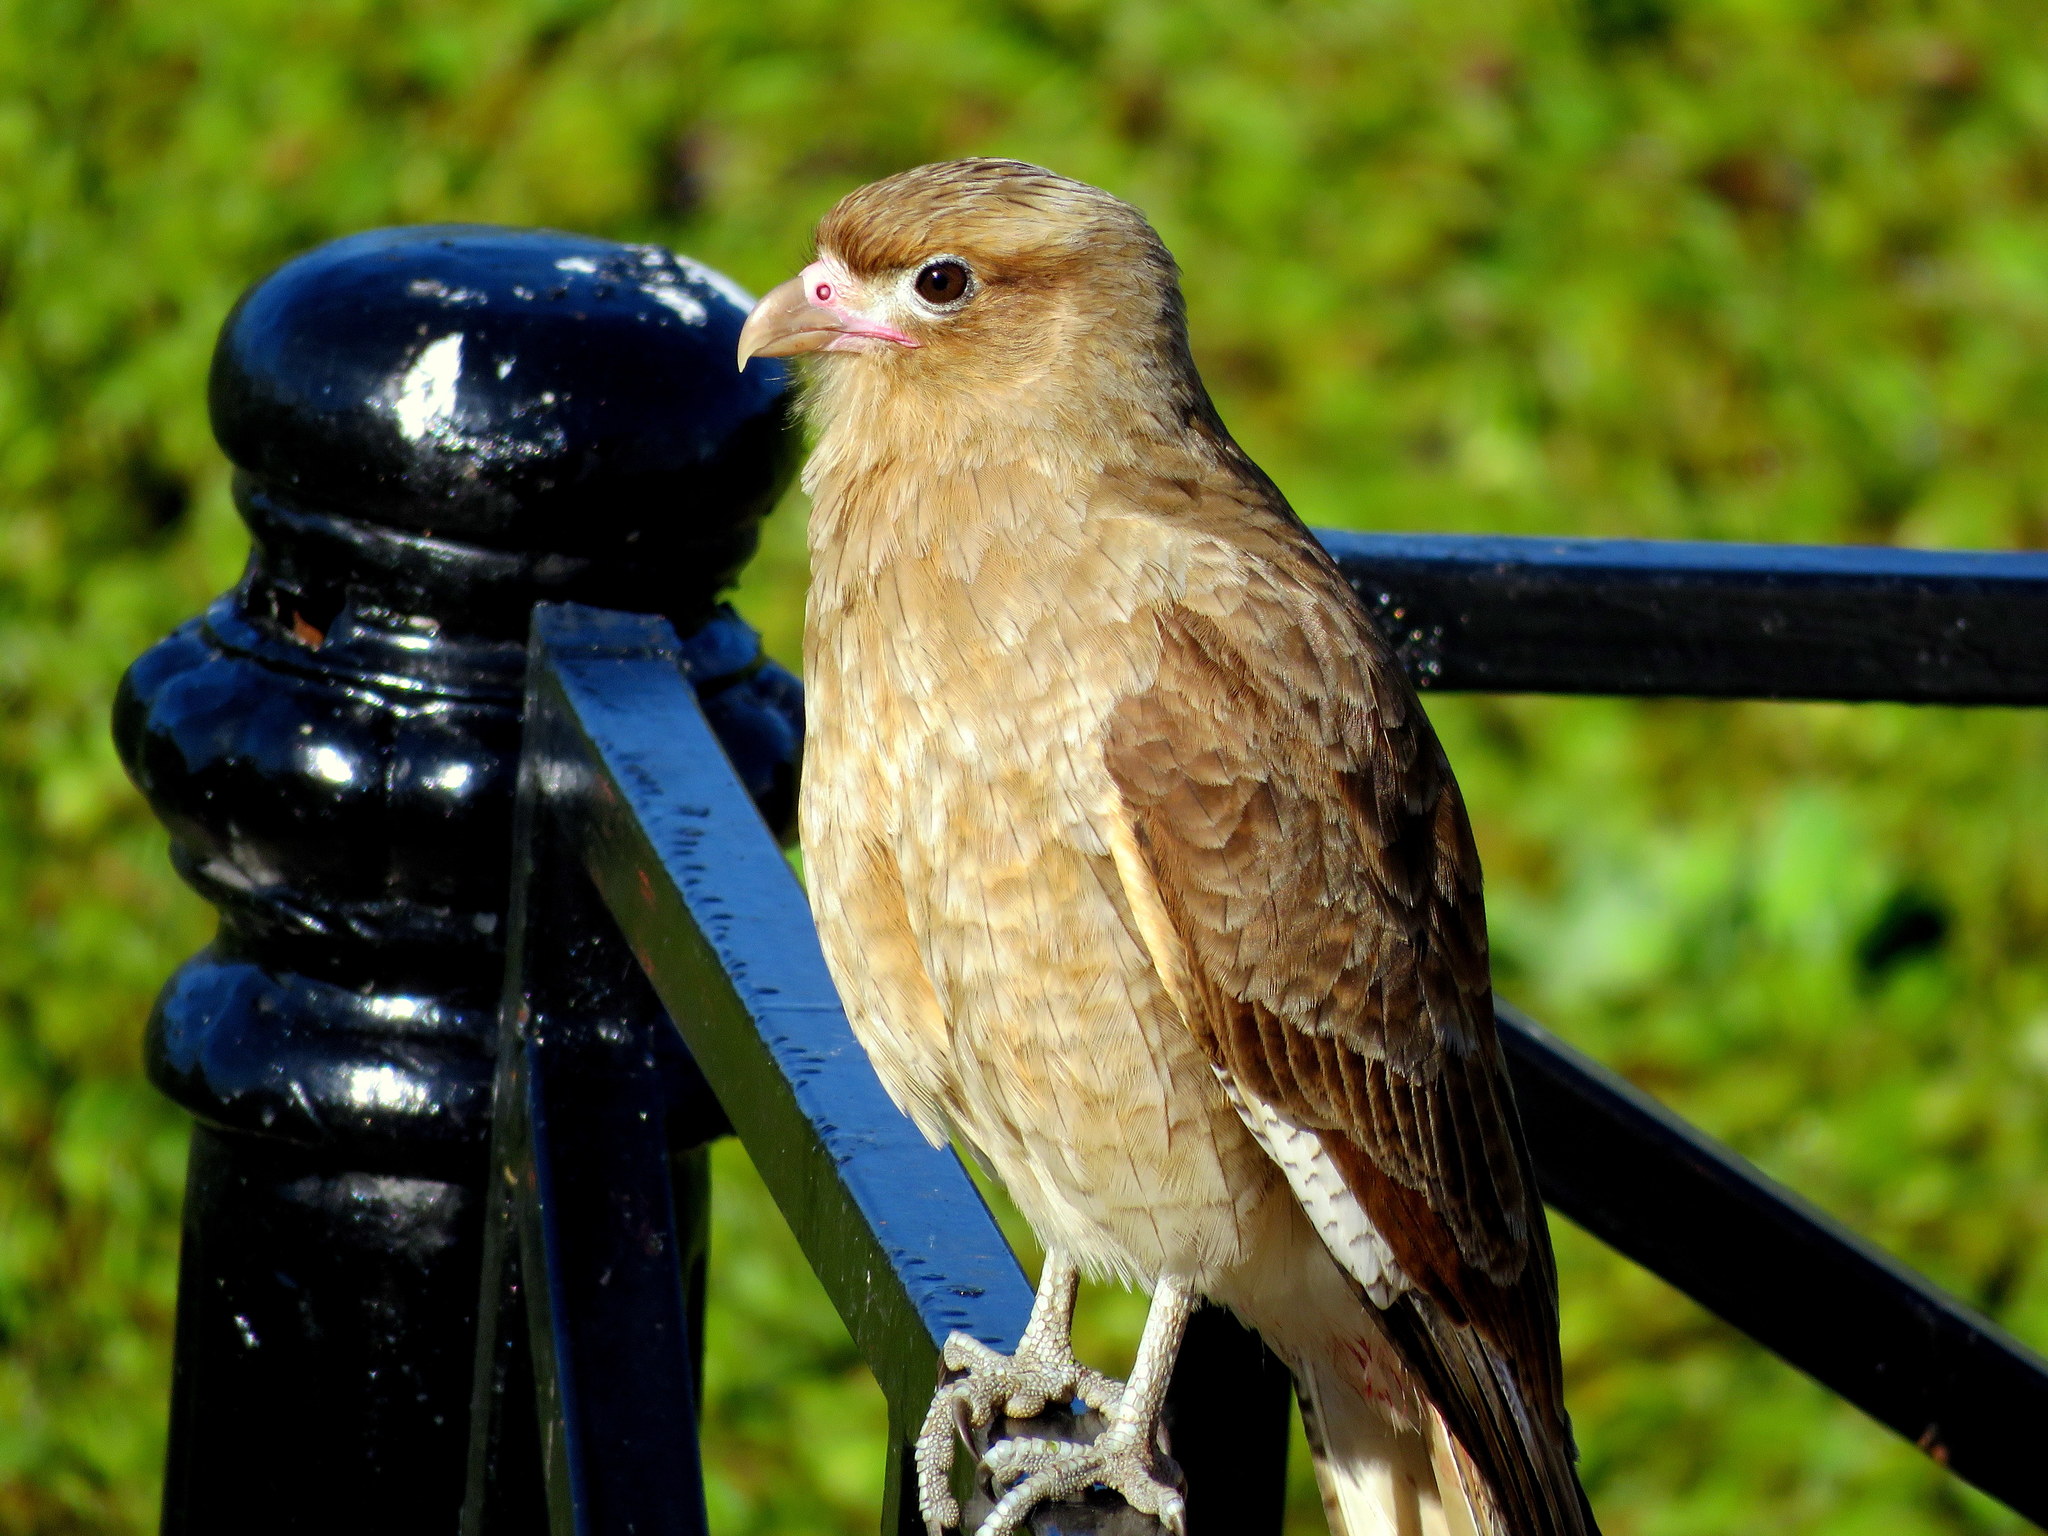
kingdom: Animalia
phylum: Chordata
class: Aves
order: Falconiformes
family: Falconidae
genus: Daptrius
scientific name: Daptrius
